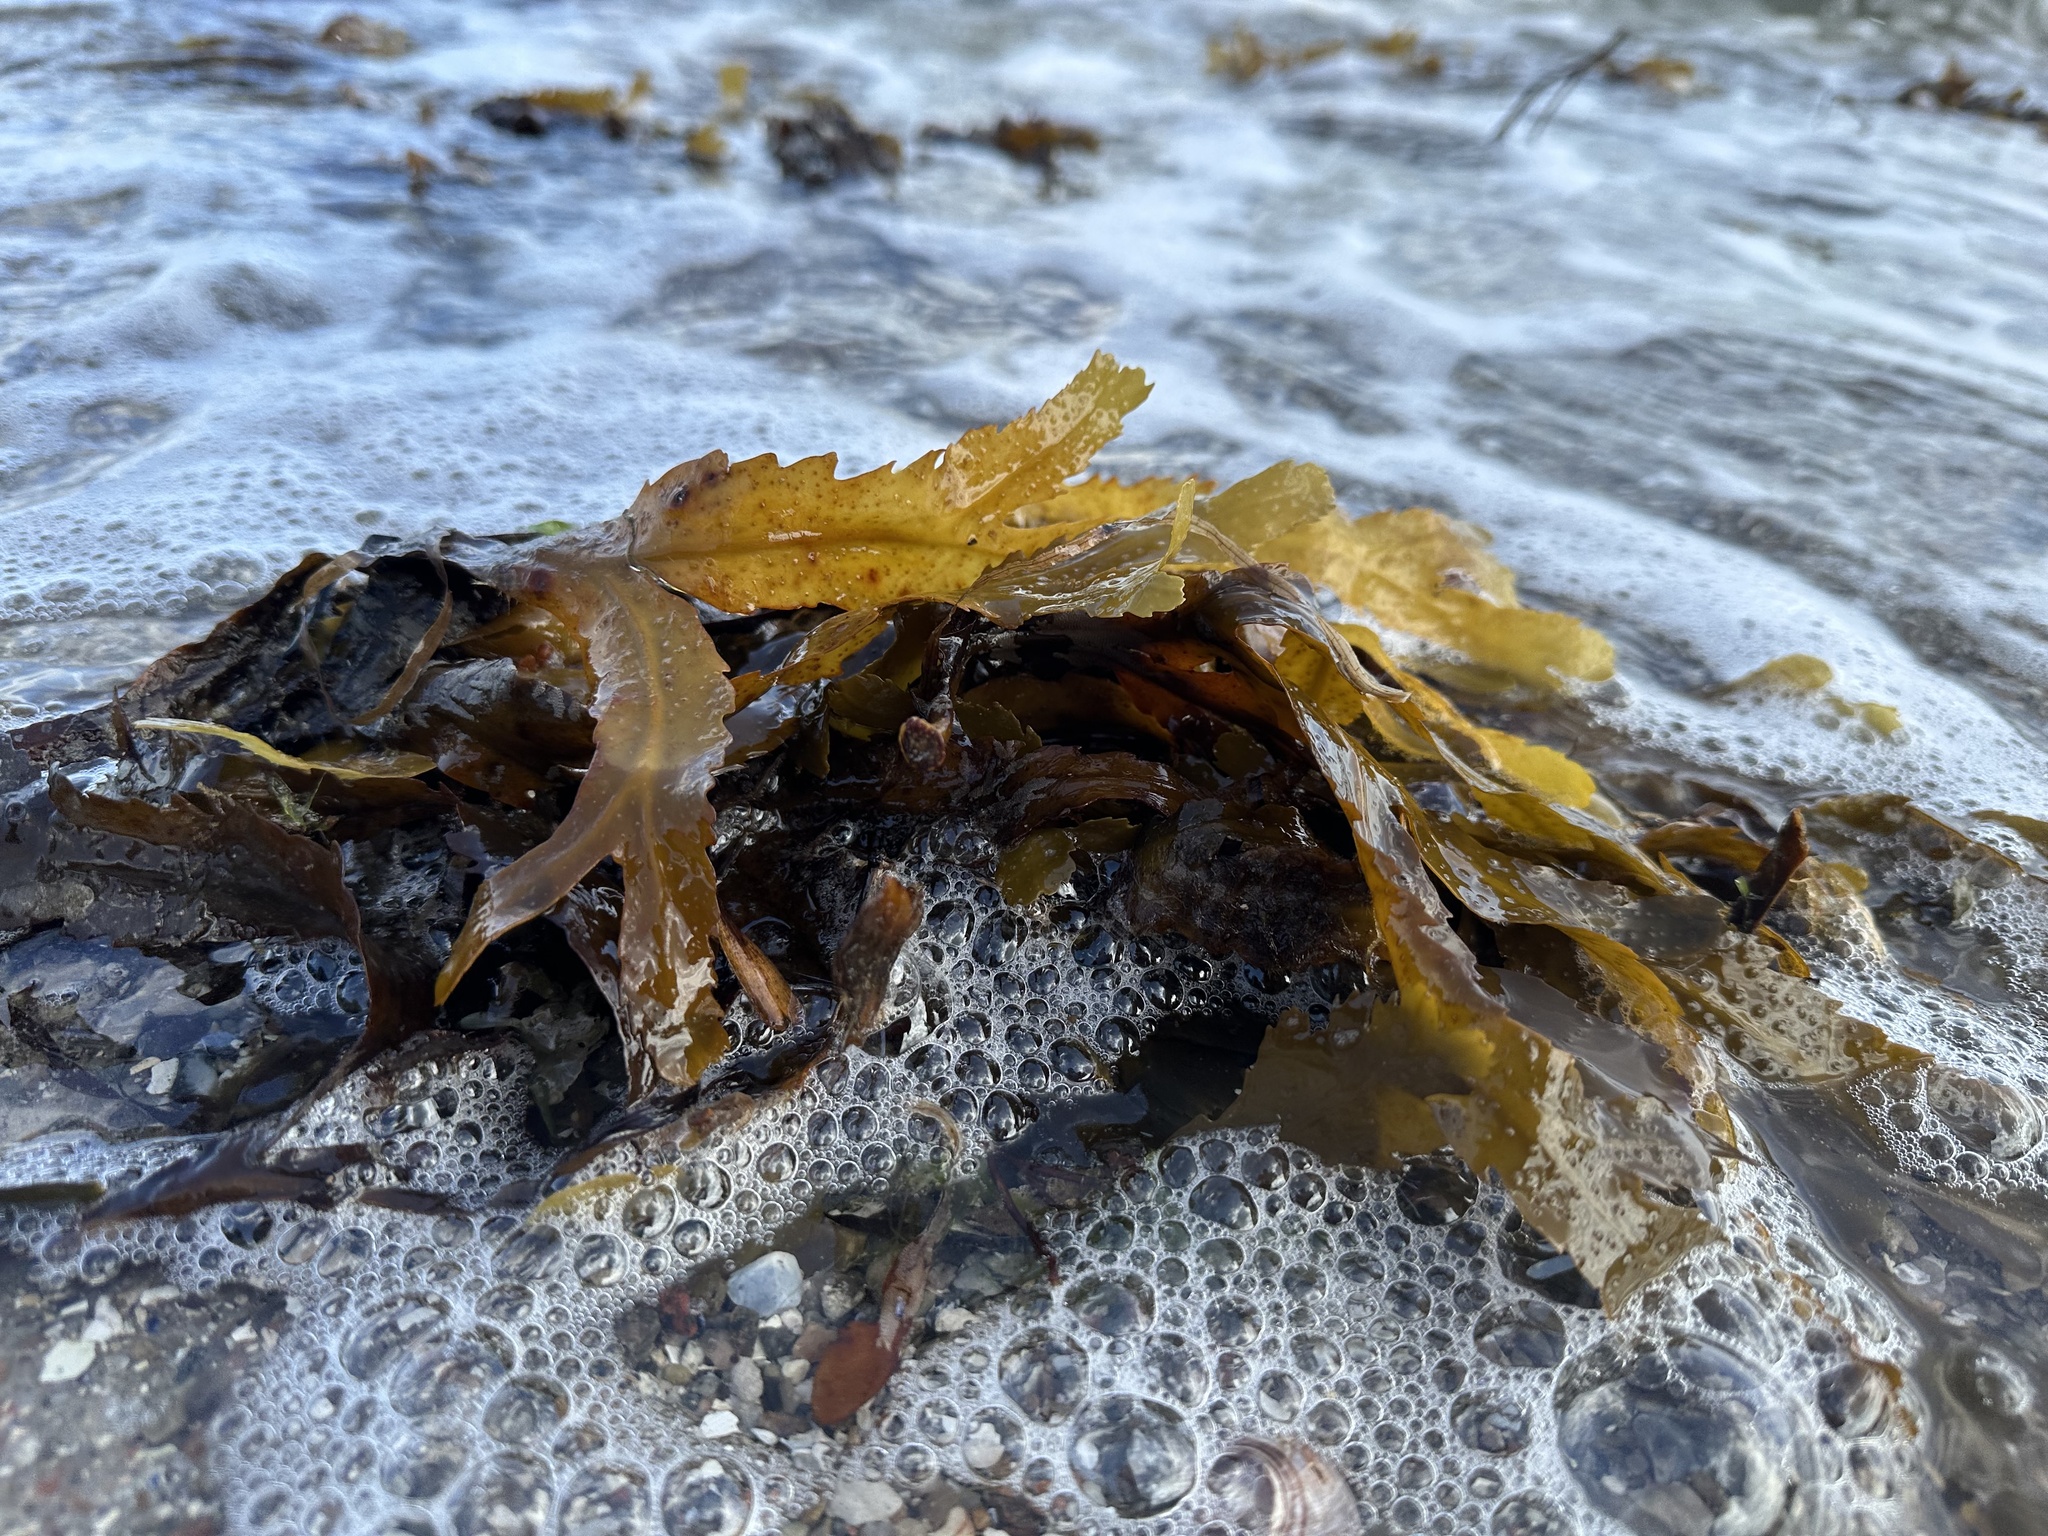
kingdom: Chromista
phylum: Ochrophyta
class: Phaeophyceae
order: Fucales
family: Fucaceae
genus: Fucus
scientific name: Fucus serratus
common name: Toothed wrack
